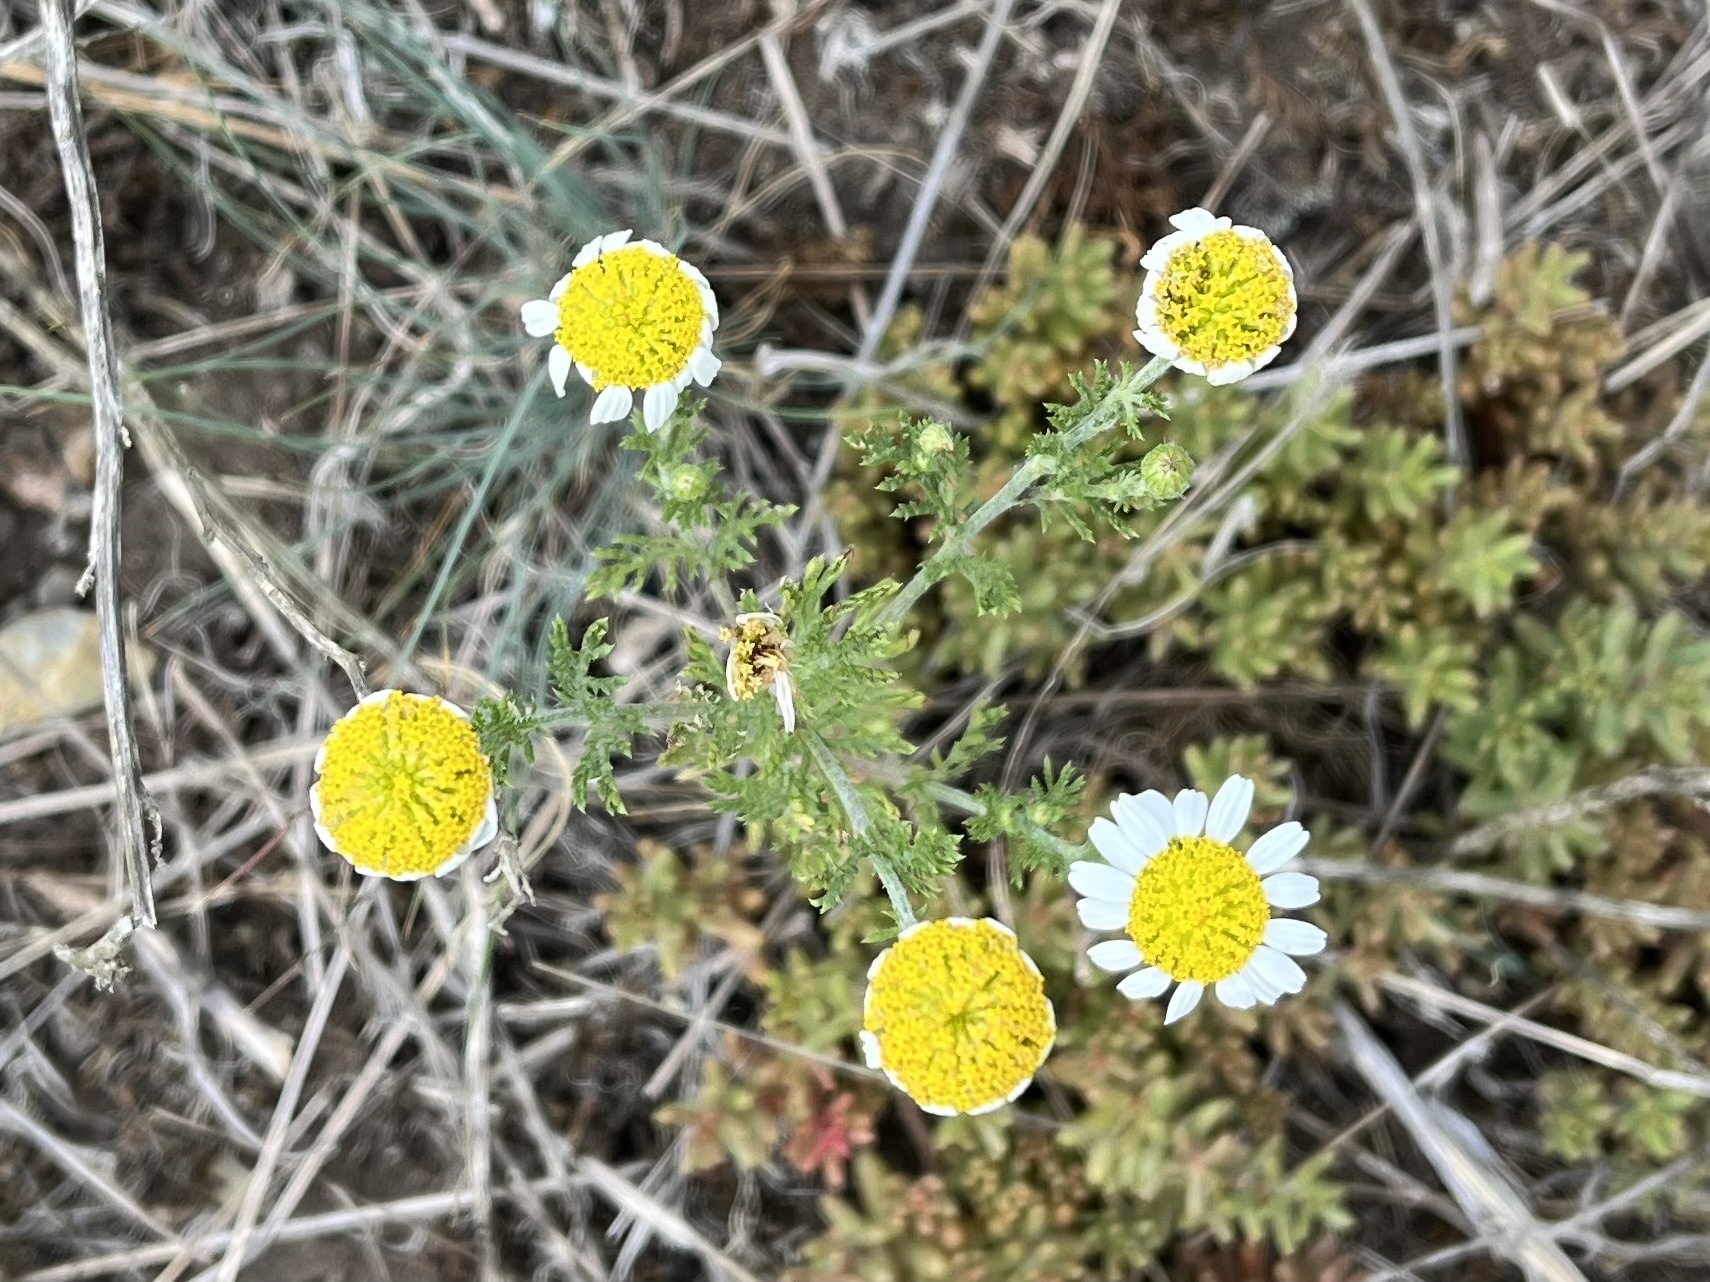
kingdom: Plantae
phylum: Tracheophyta
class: Magnoliopsida
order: Asterales
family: Asteraceae
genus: Cota
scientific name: Cota austriaca
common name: Austrian chamomile
